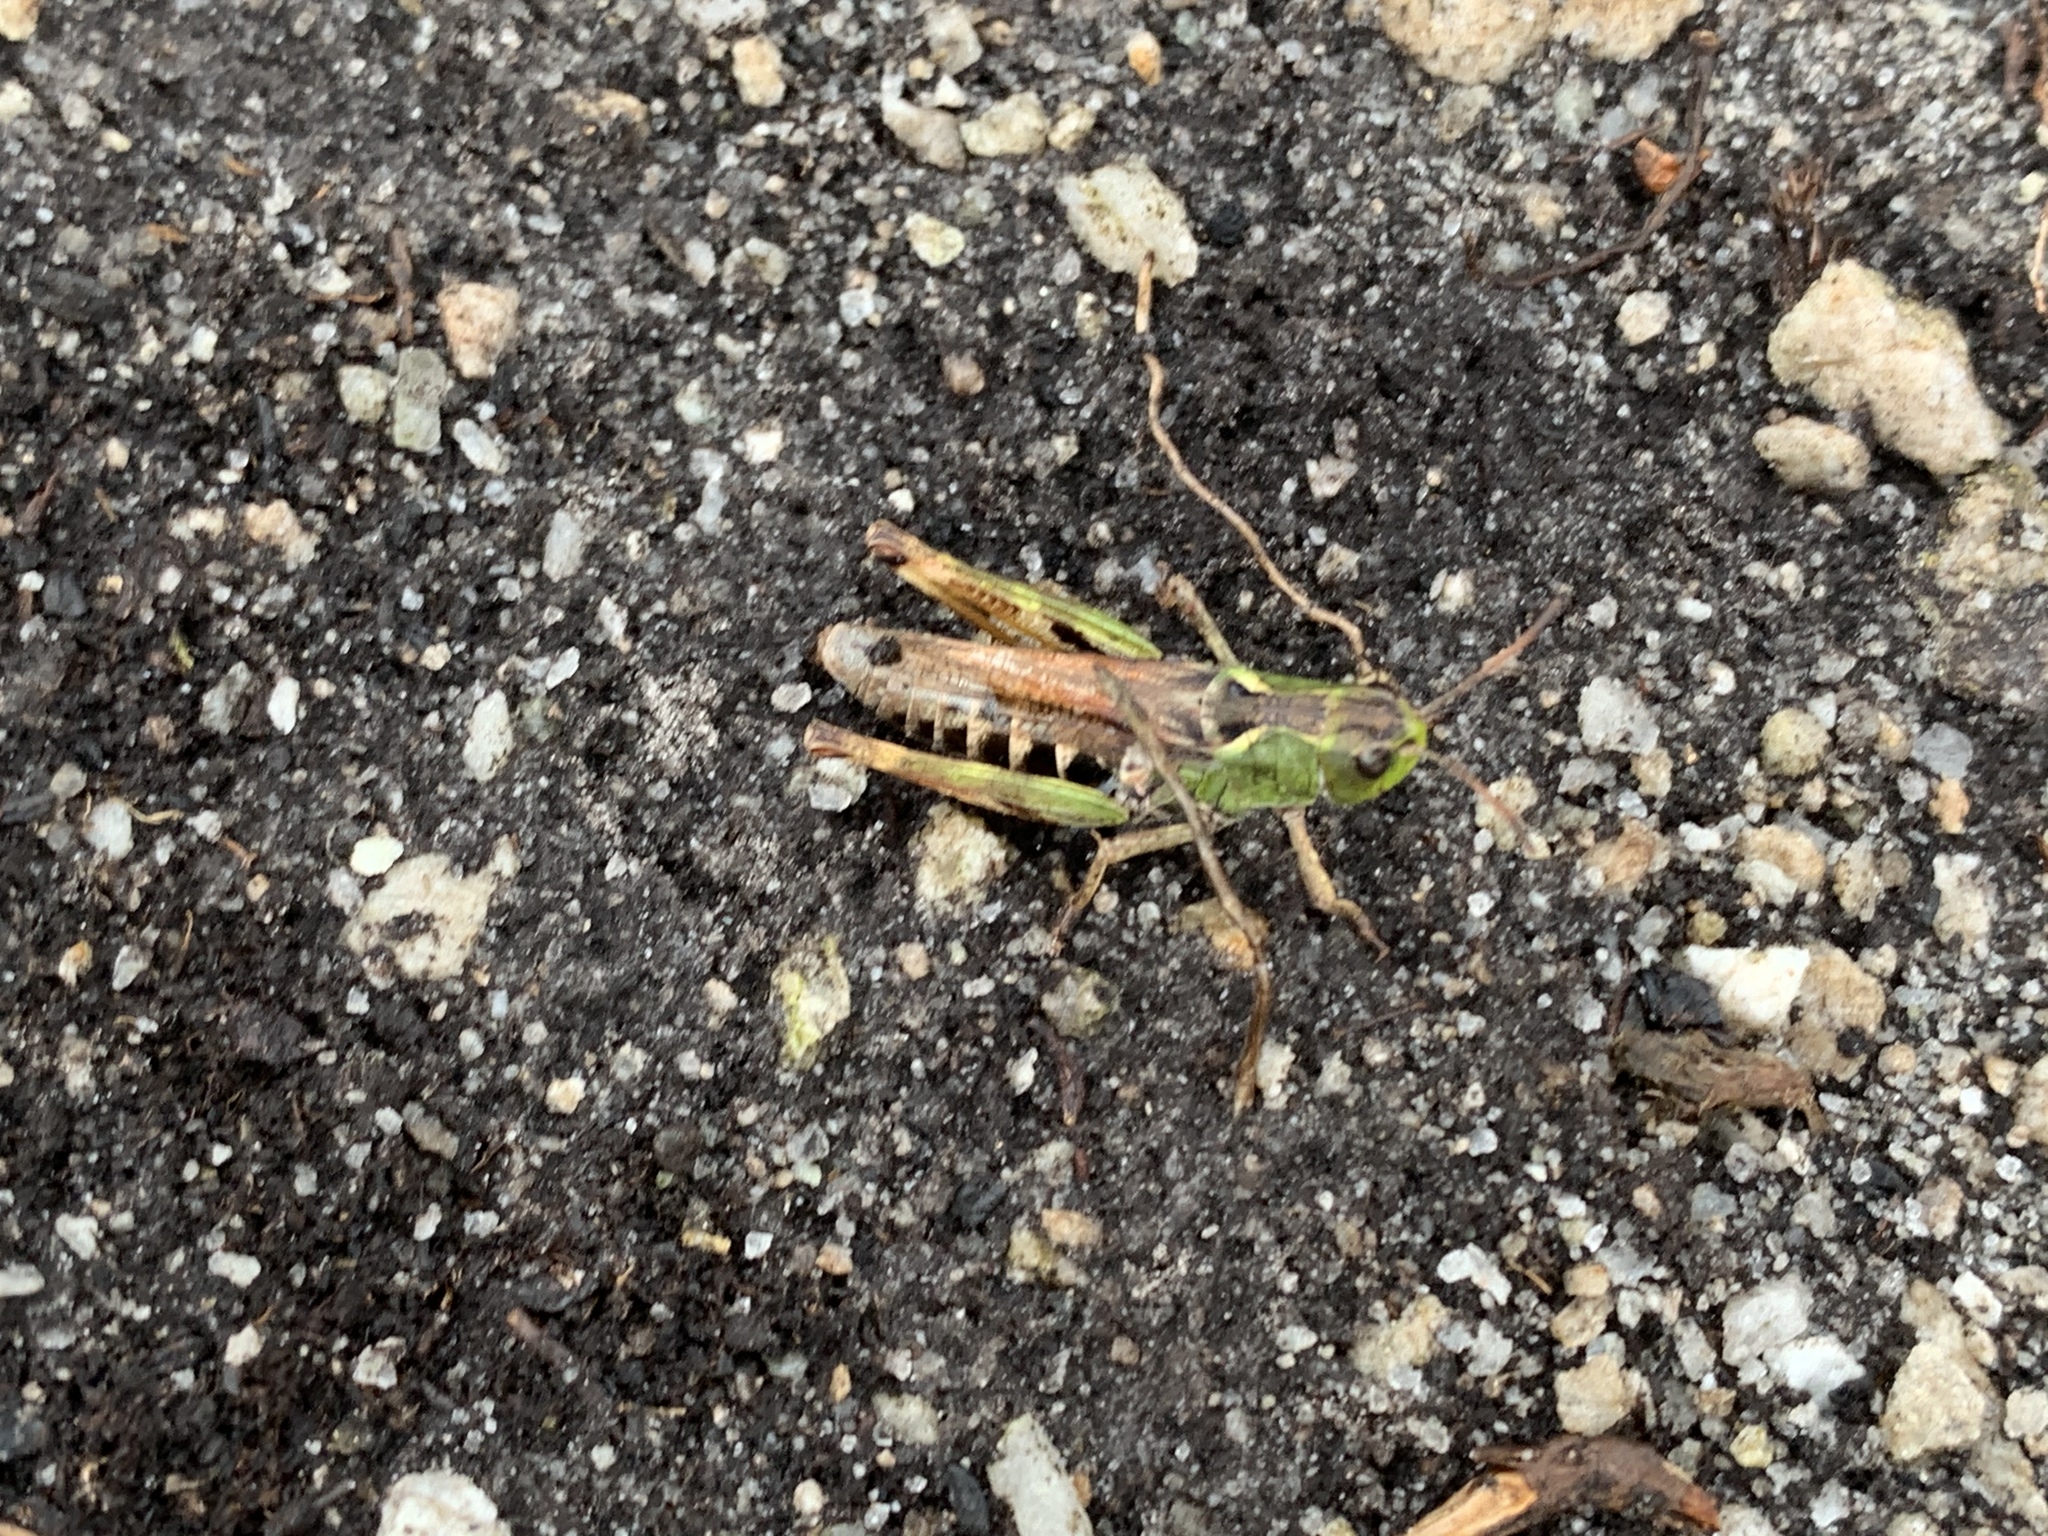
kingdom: Animalia
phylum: Arthropoda
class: Insecta
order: Orthoptera
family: Acrididae
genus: Gomphocerus
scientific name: Gomphocerus sibiricus
